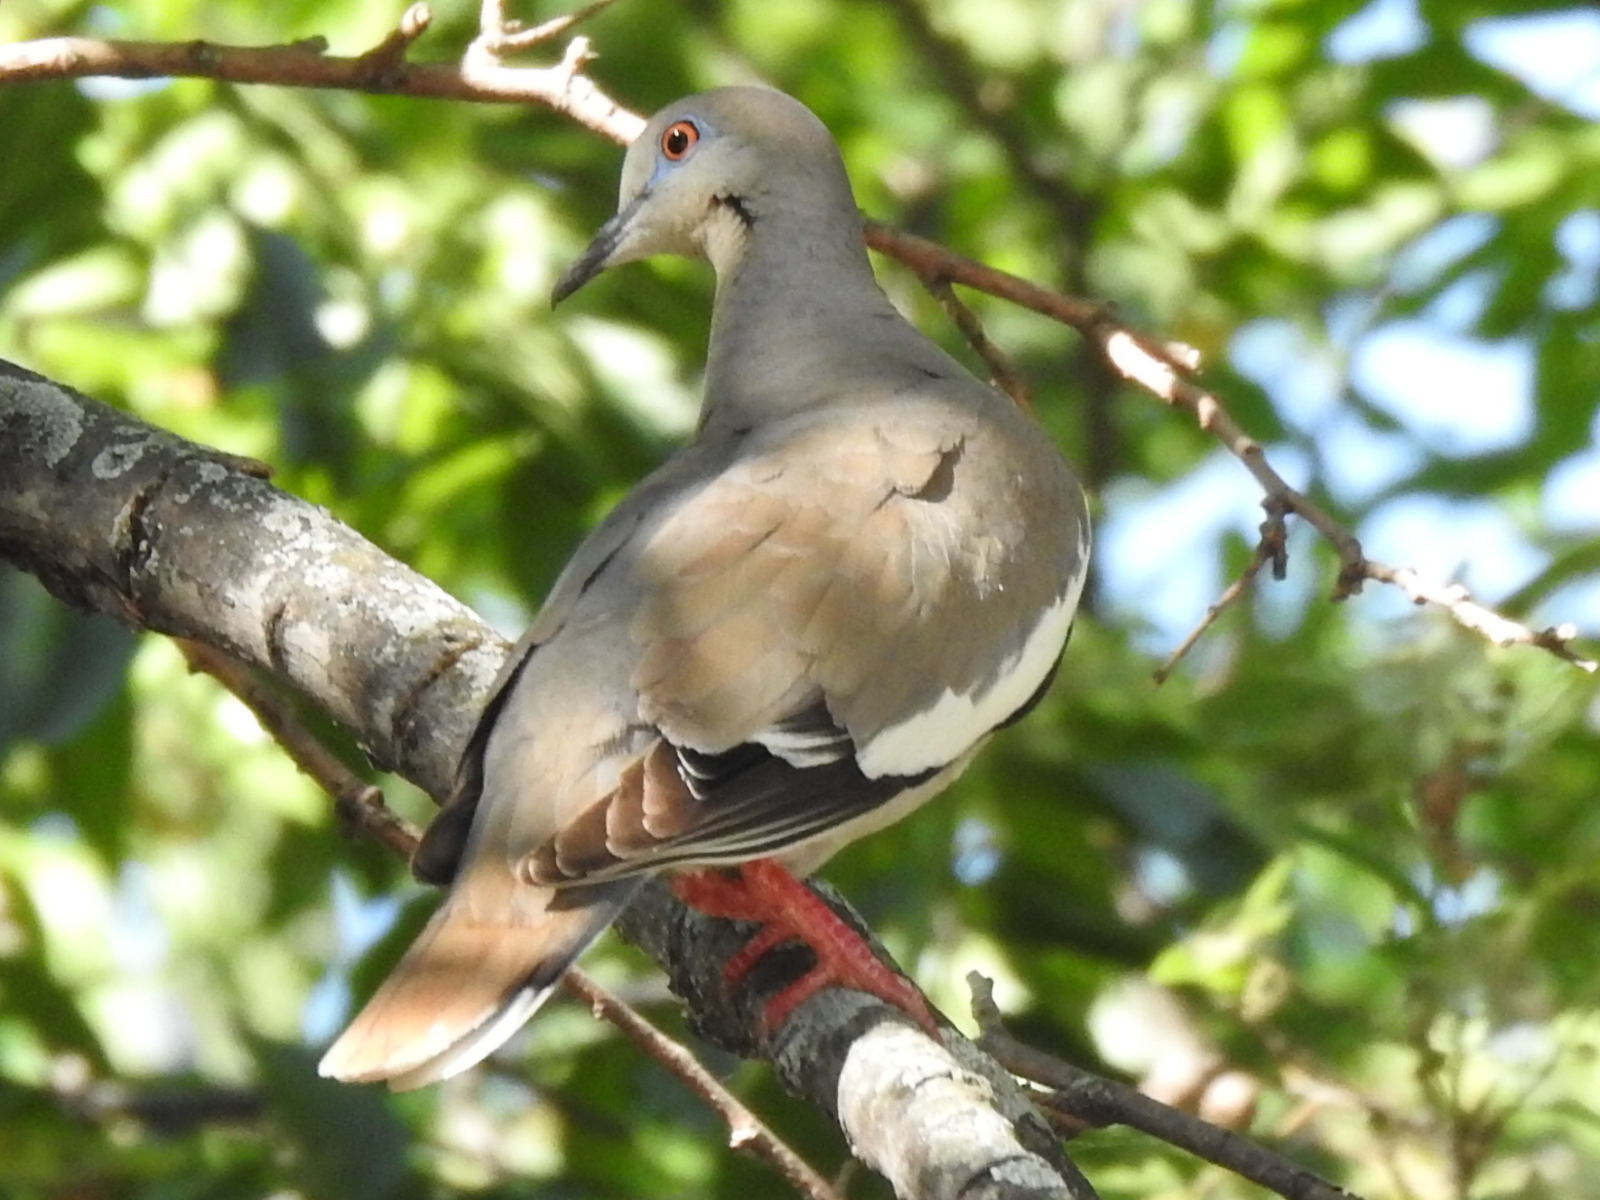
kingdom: Animalia
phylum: Chordata
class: Aves
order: Columbiformes
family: Columbidae
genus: Zenaida
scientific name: Zenaida asiatica
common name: White-winged dove
